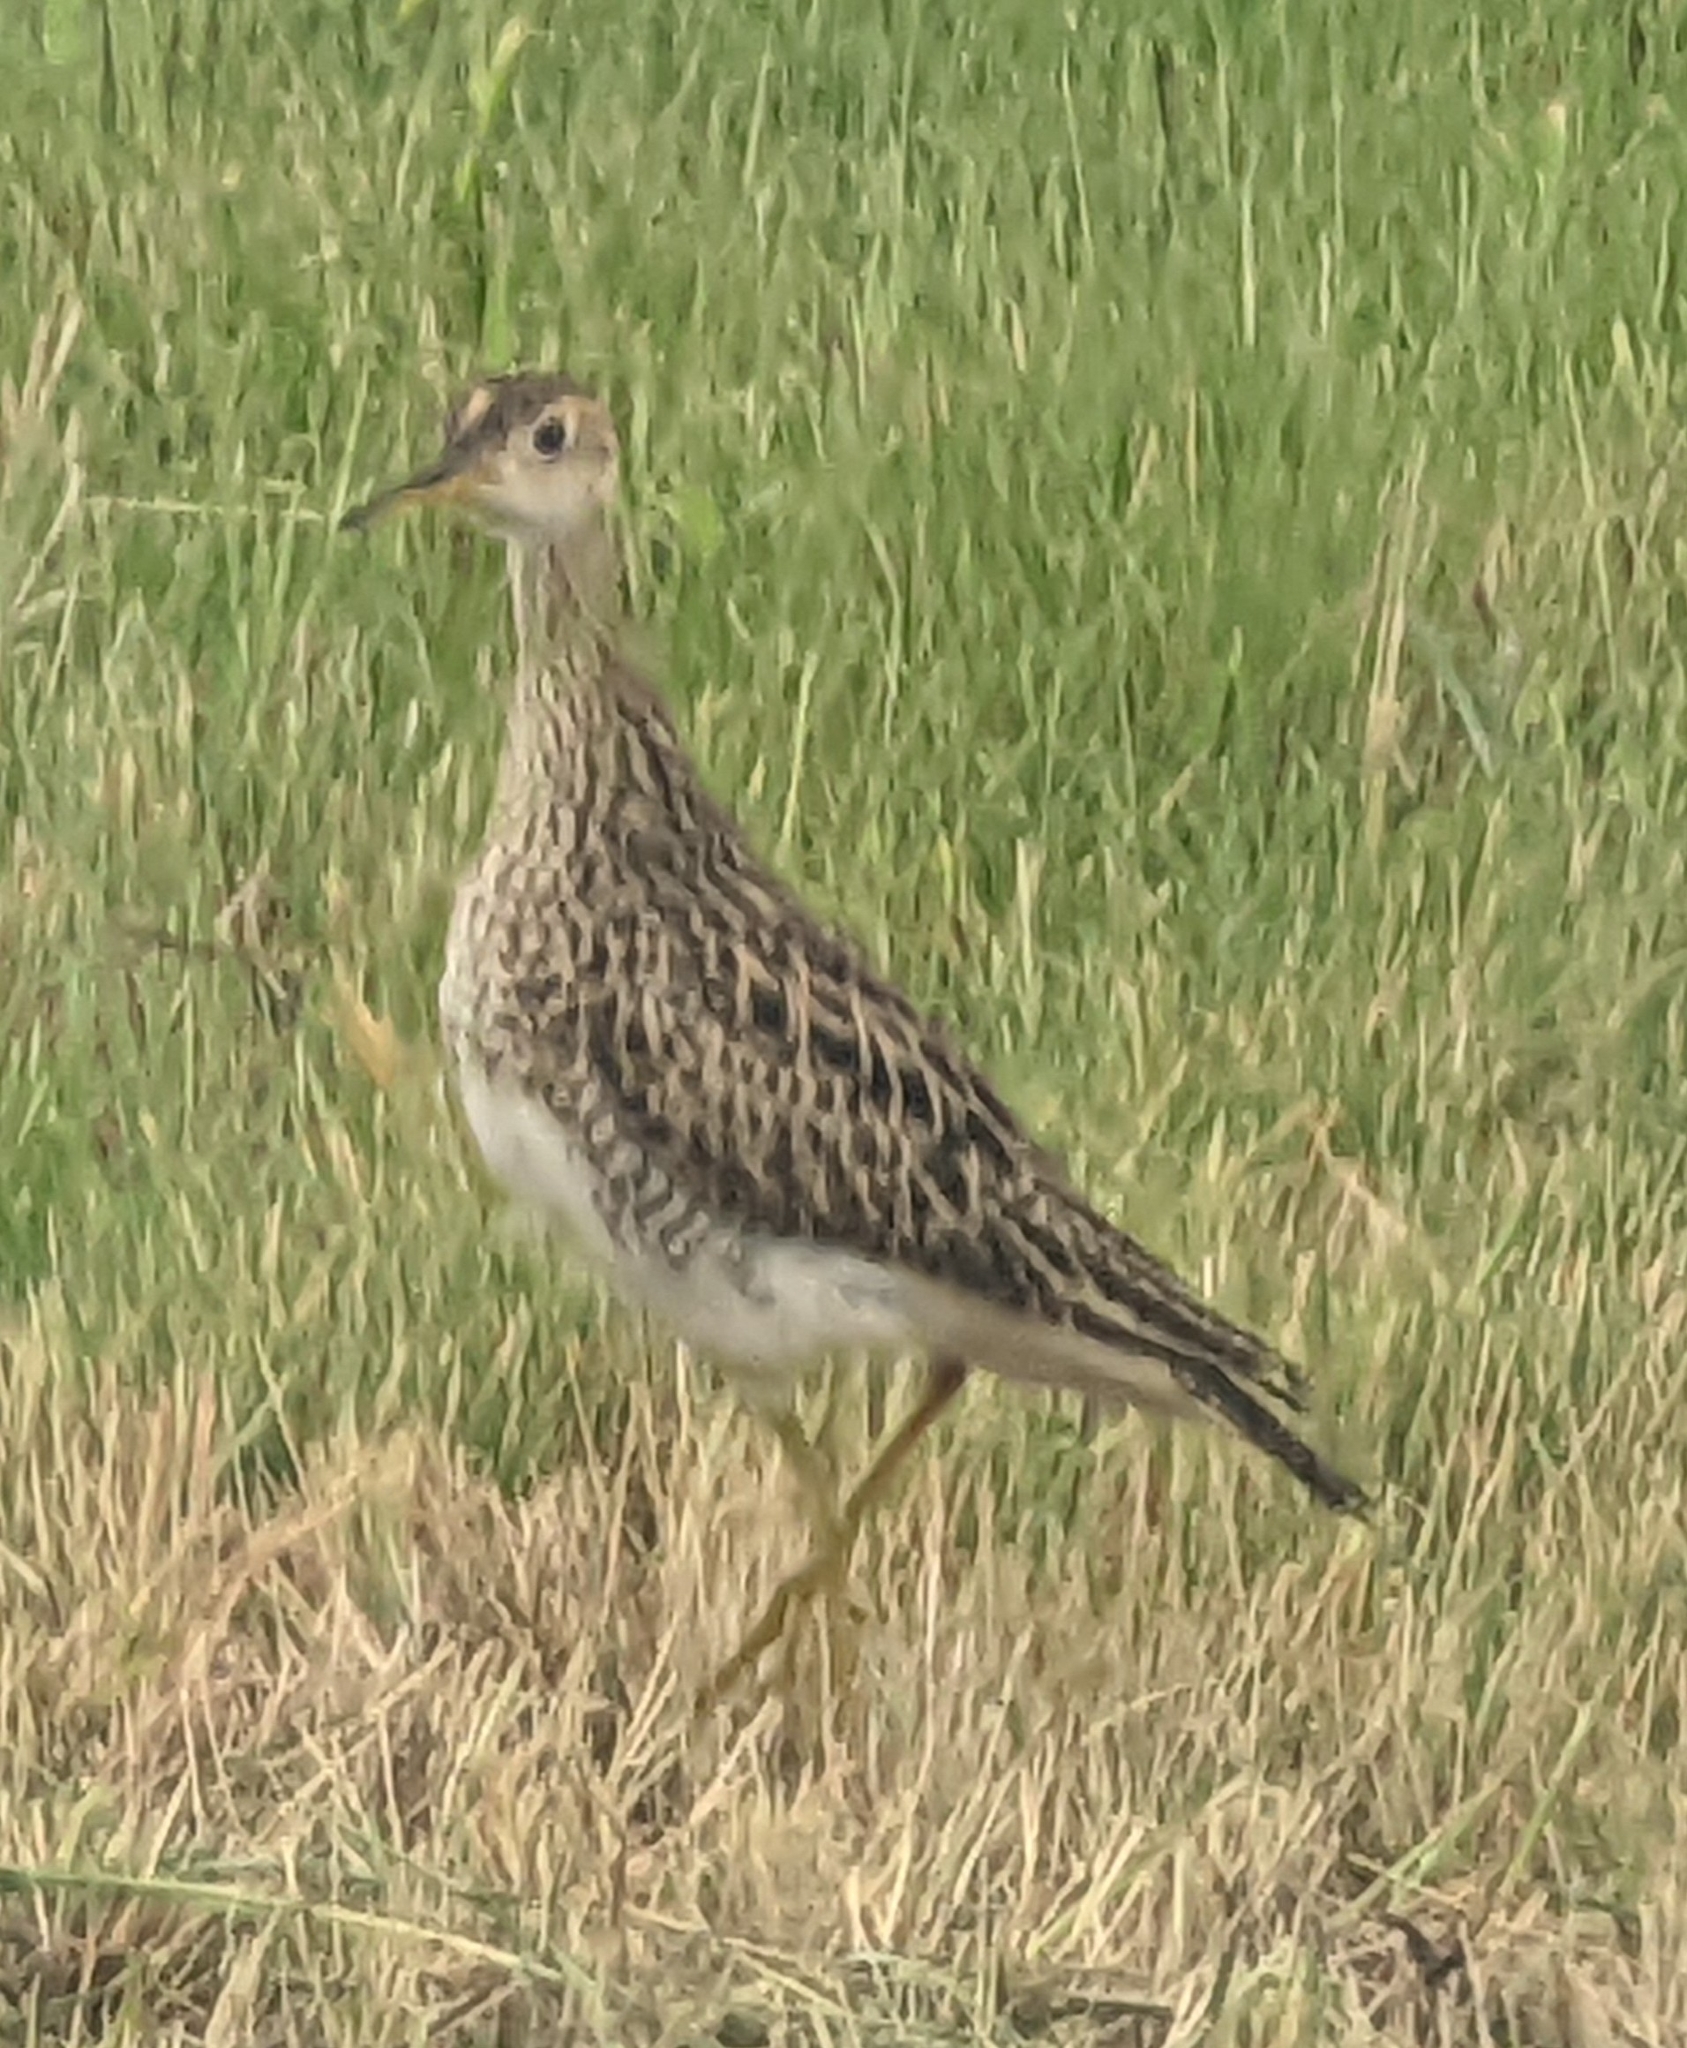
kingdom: Animalia
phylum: Chordata
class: Aves
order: Charadriiformes
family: Scolopacidae
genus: Bartramia
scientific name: Bartramia longicauda
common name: Upland sandpiper
